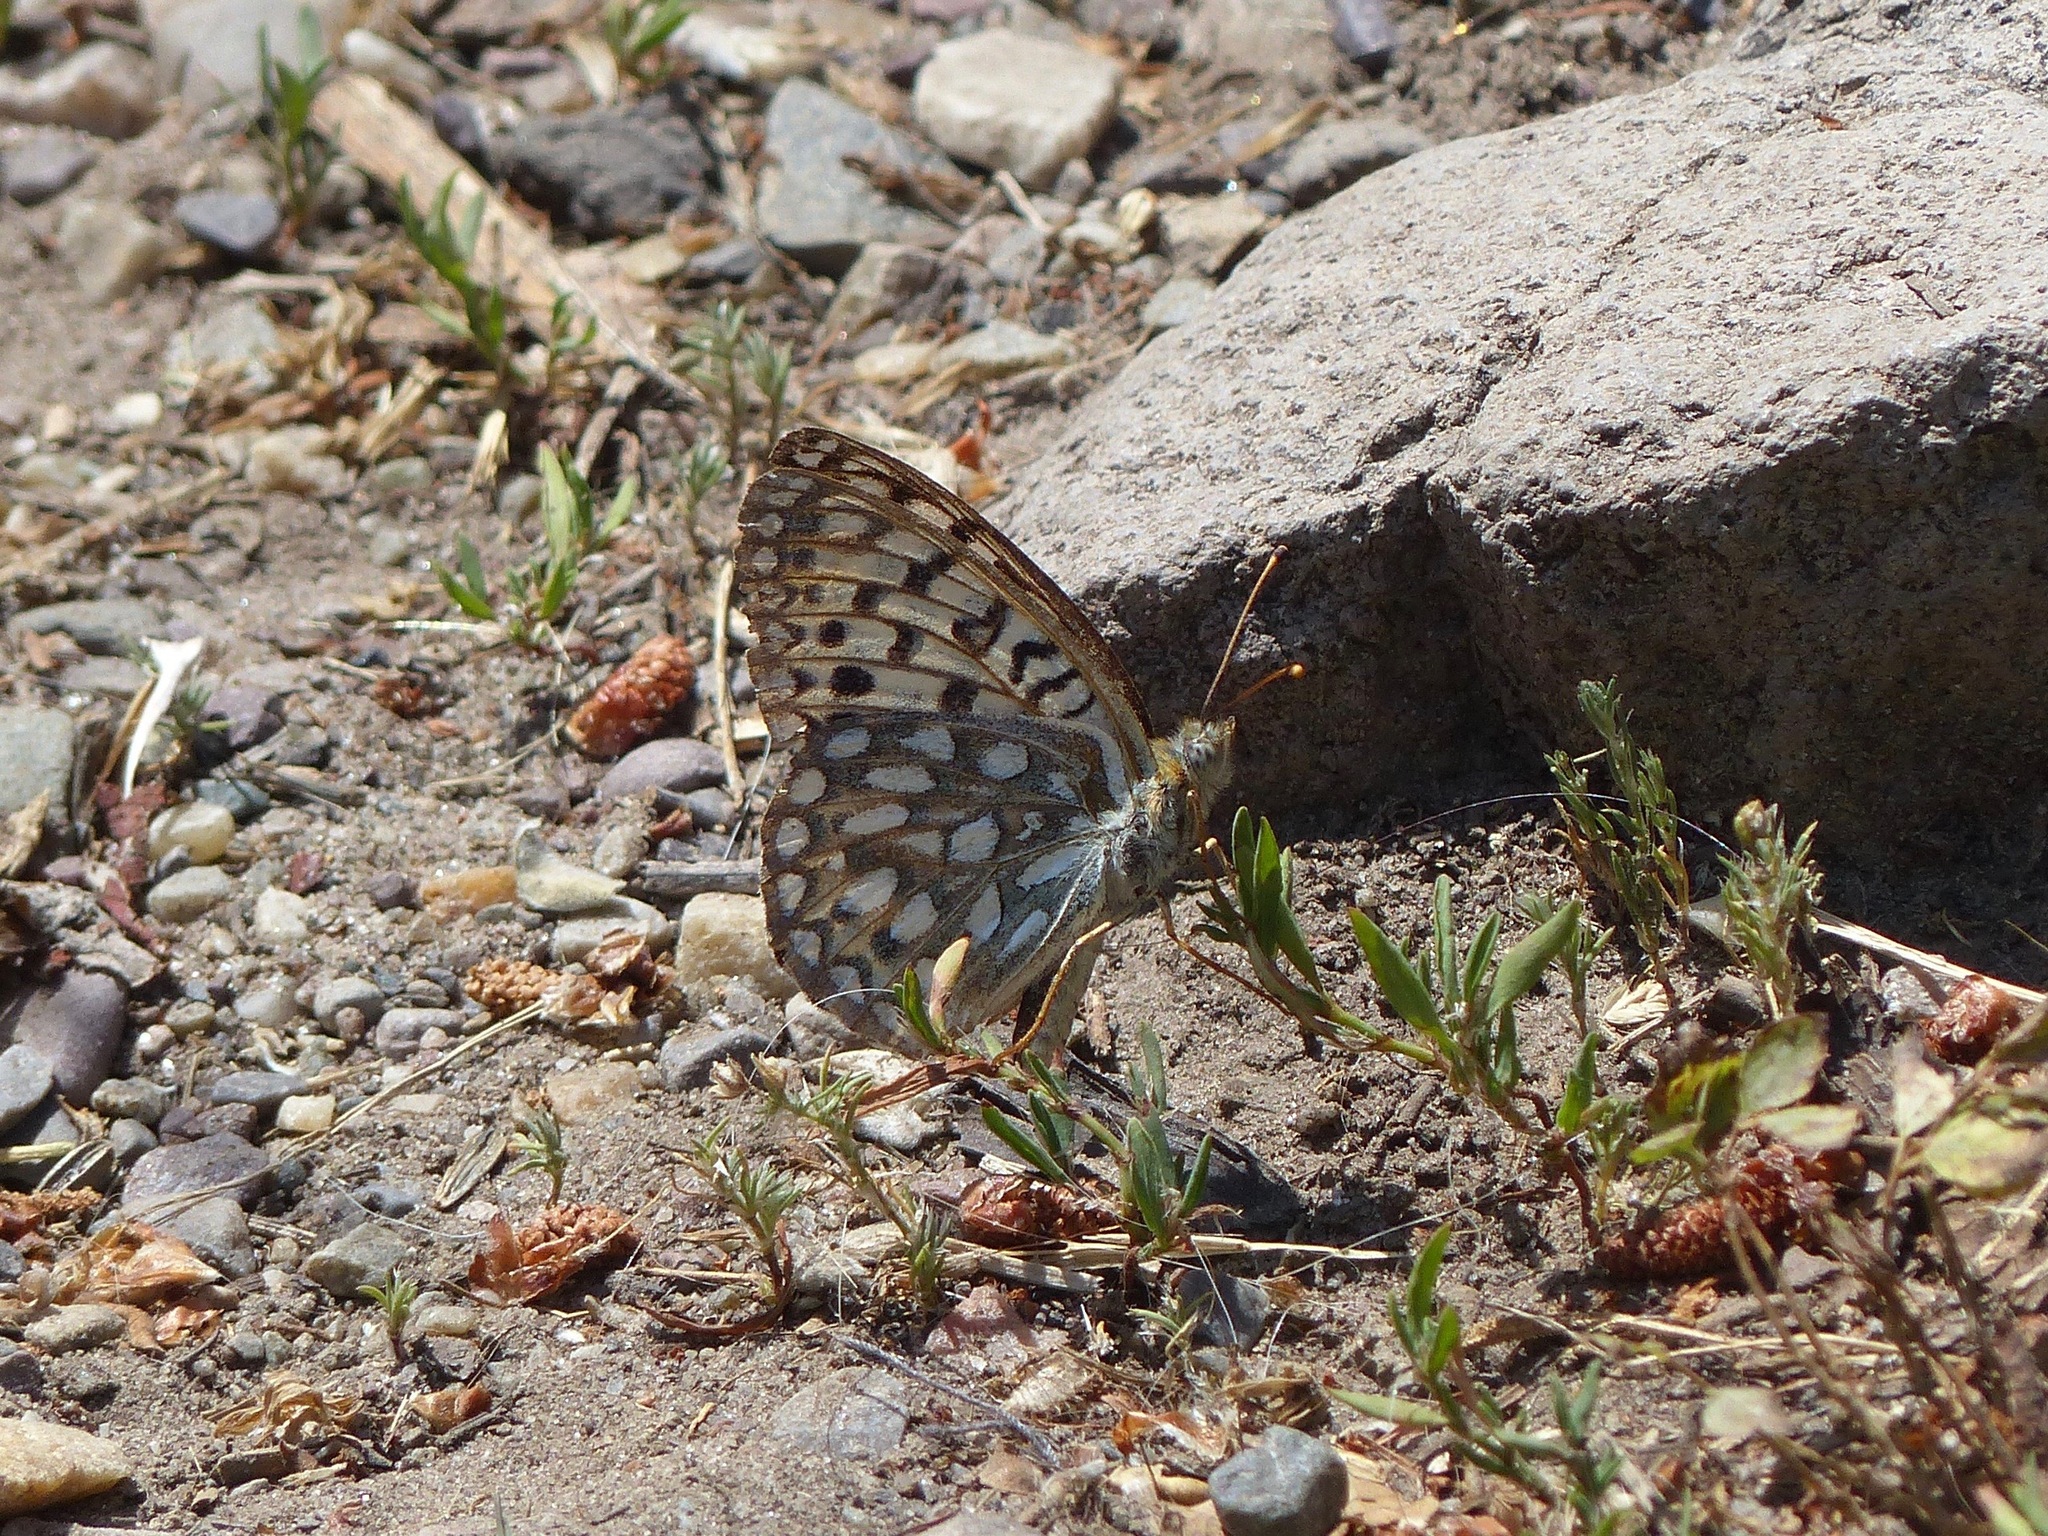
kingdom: Animalia
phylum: Arthropoda
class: Insecta
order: Lepidoptera
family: Nymphalidae
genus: Speyeria
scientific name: Speyeria callippe
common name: Callippe fritillary
